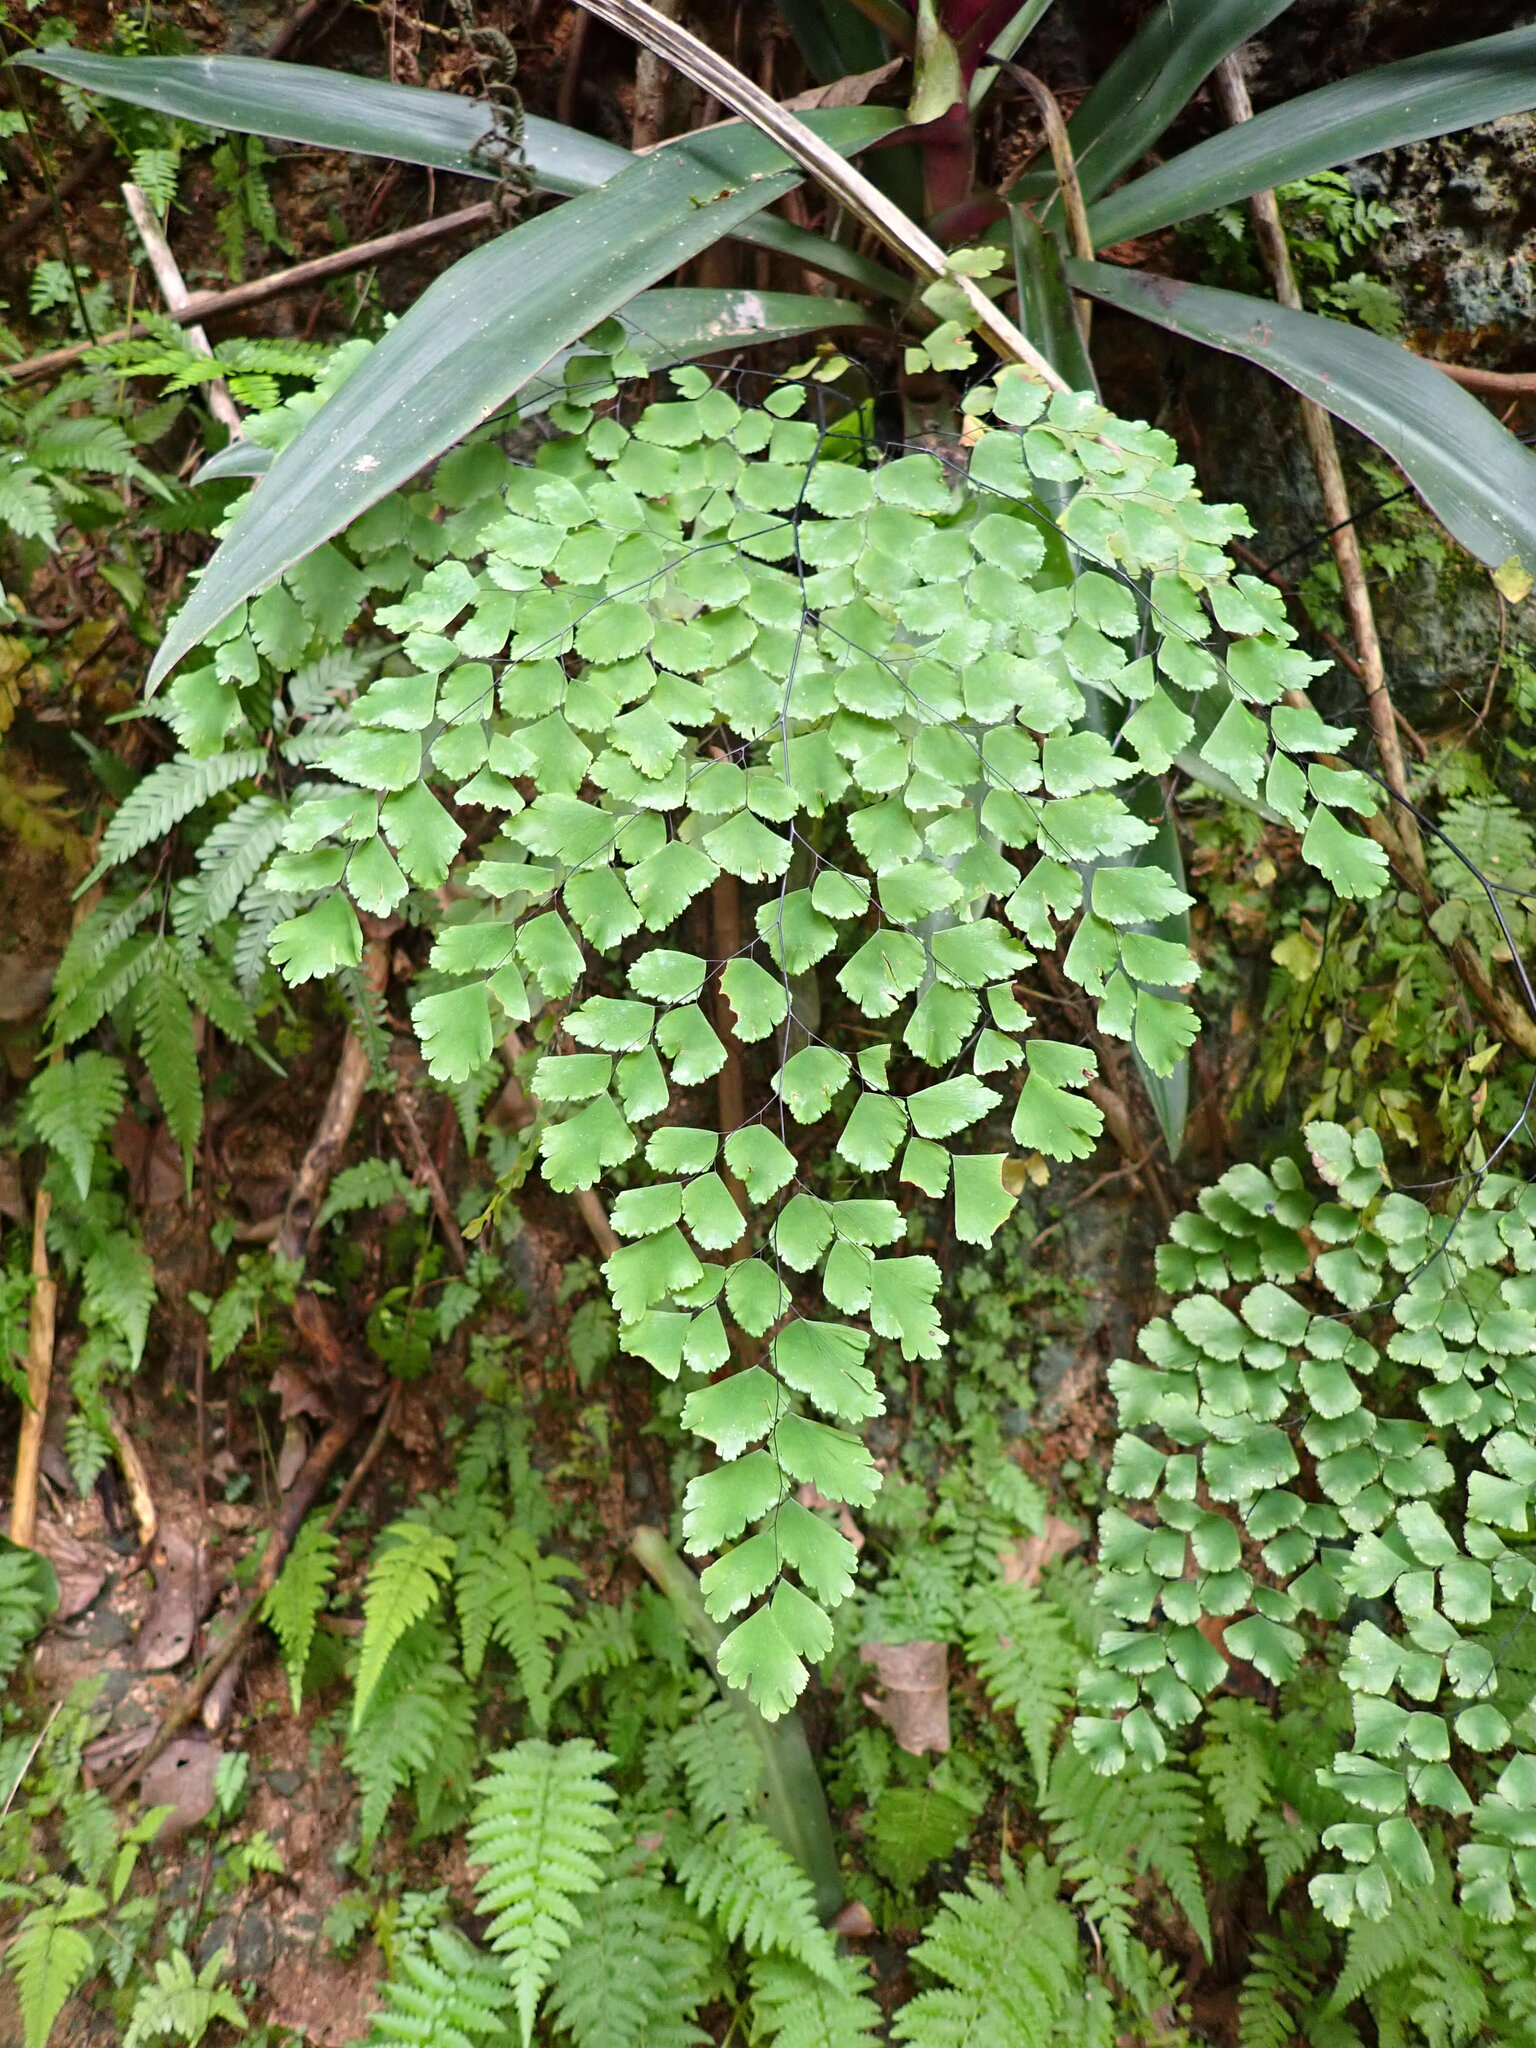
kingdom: Plantae
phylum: Tracheophyta
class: Polypodiopsida
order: Polypodiales
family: Pteridaceae
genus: Adiantum
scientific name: Adiantum tenerum
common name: Fan maidenhair
